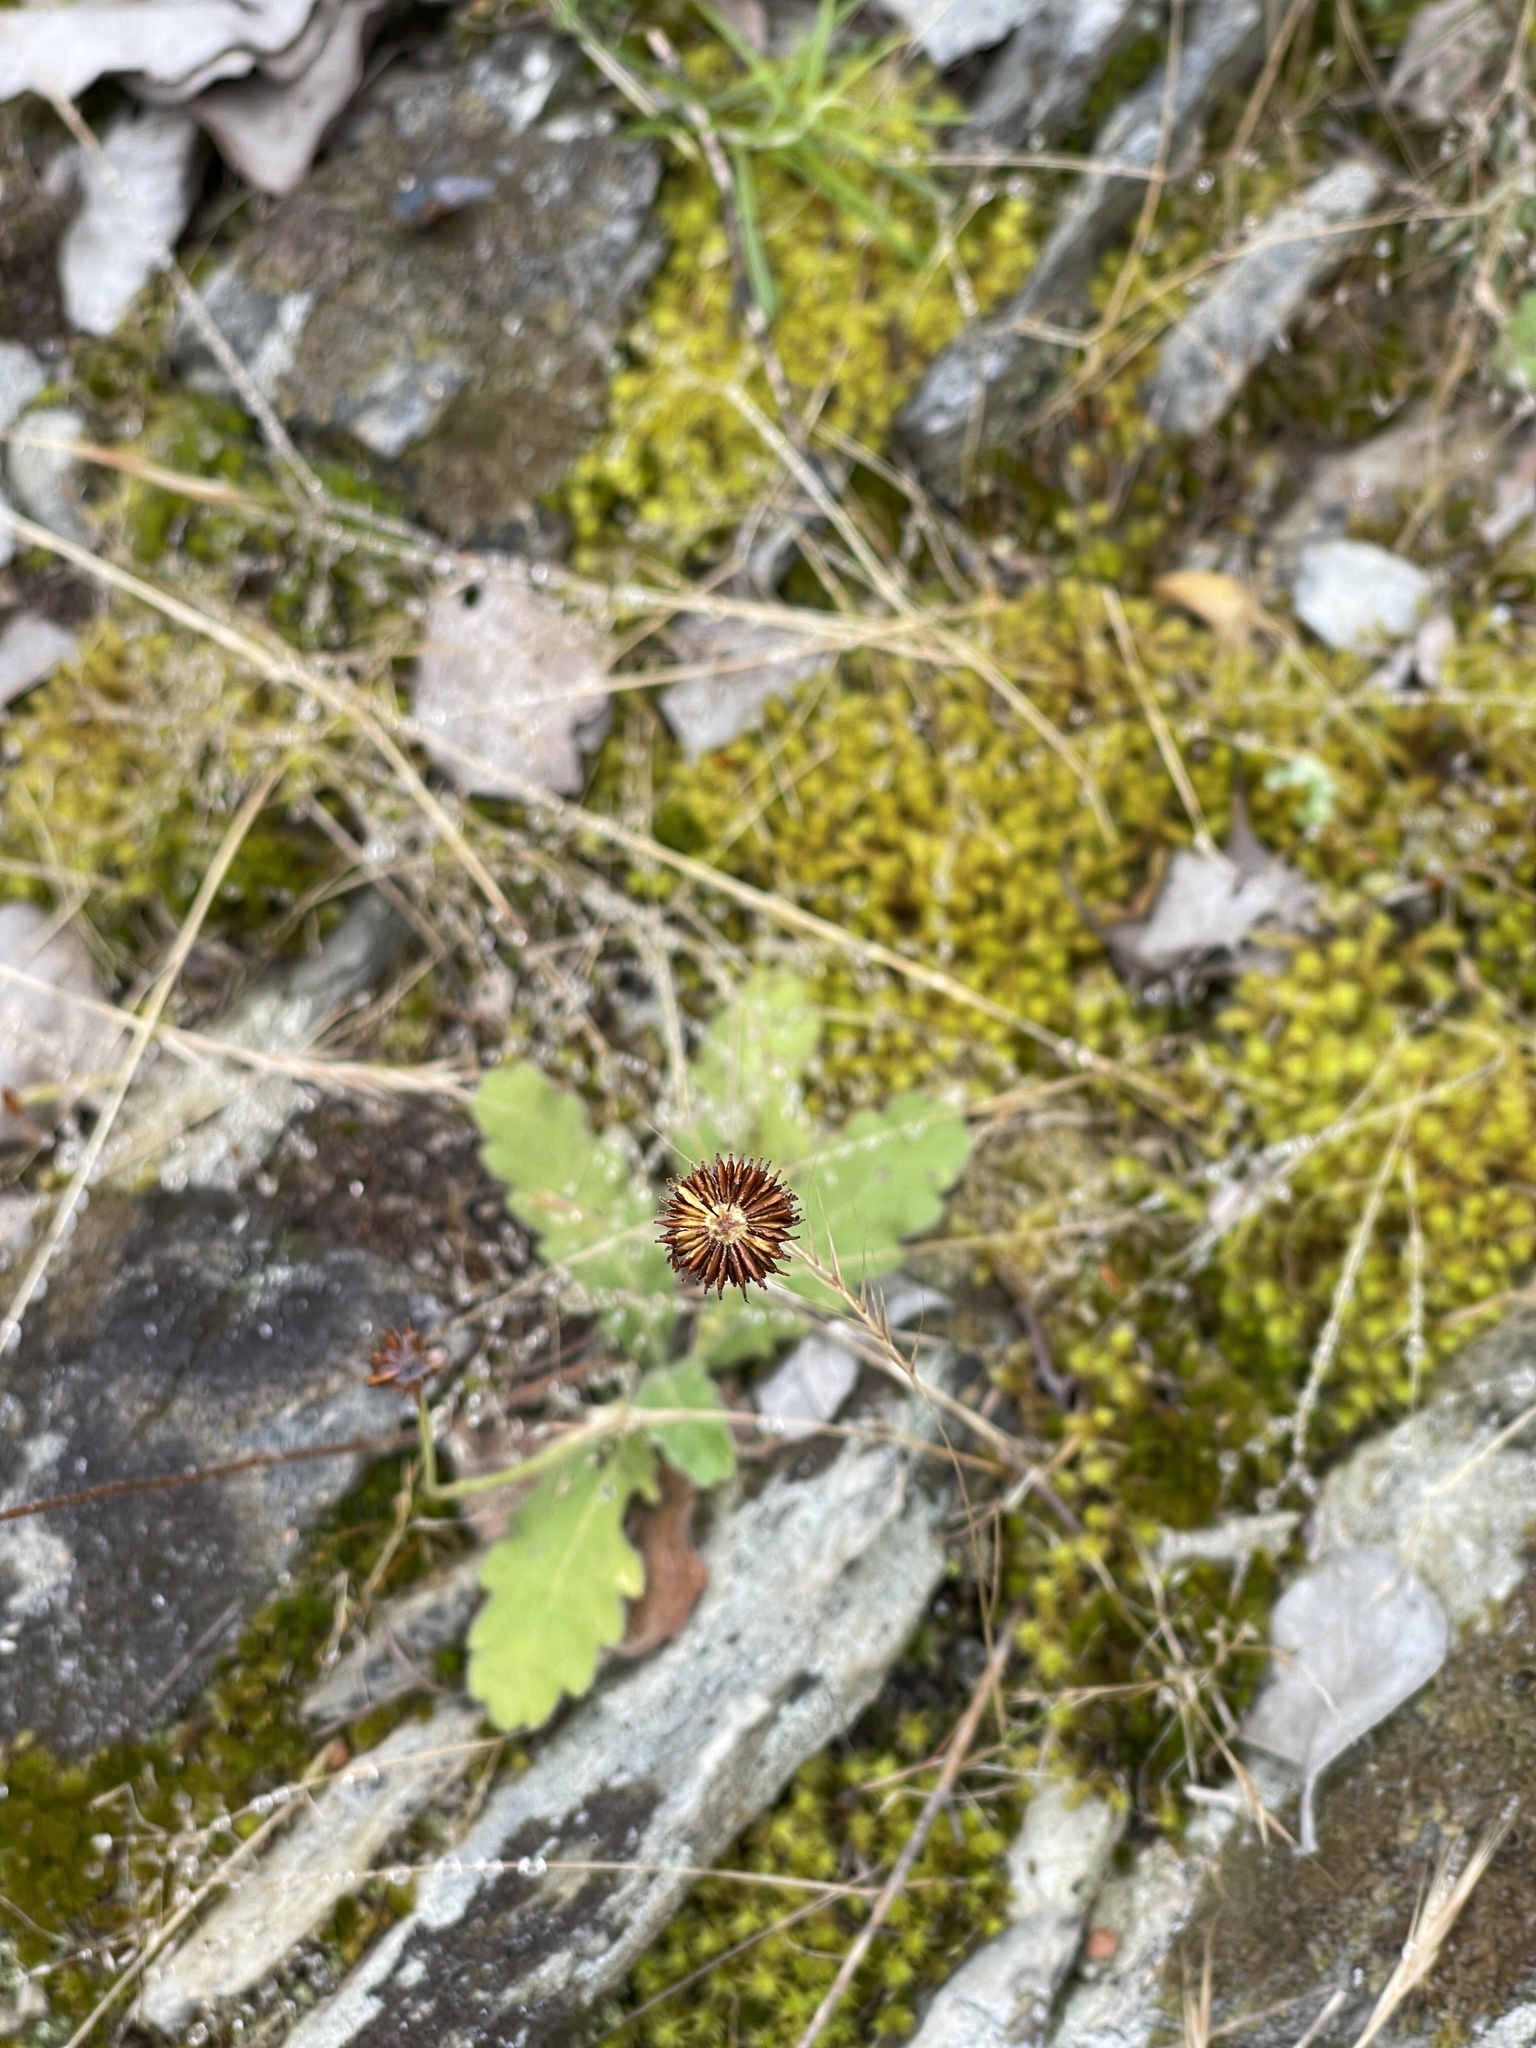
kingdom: Plantae
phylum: Tracheophyta
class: Magnoliopsida
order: Asterales
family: Asteraceae
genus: Lagenophora
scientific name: Lagenophora huegelii
